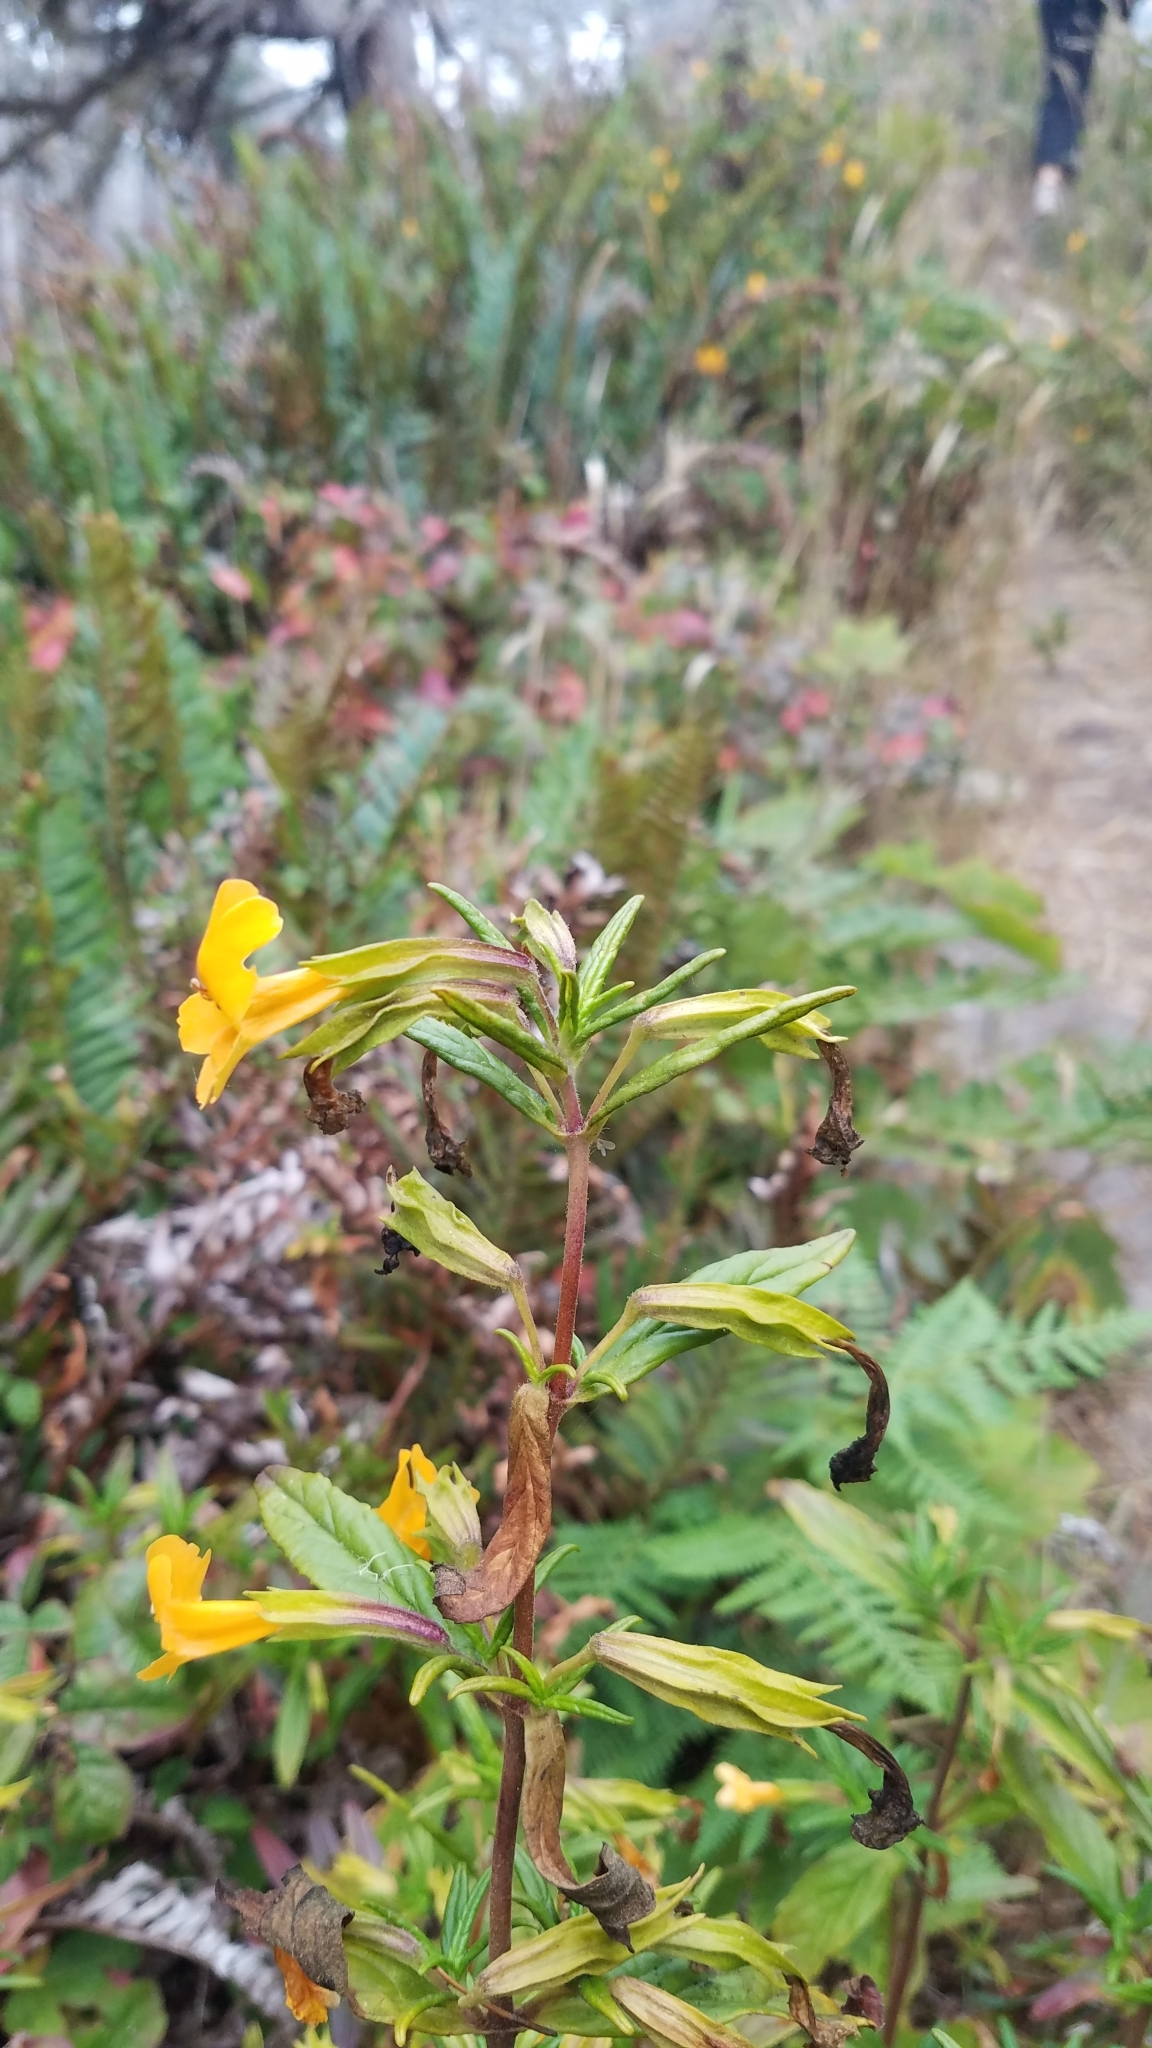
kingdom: Plantae
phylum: Tracheophyta
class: Magnoliopsida
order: Lamiales
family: Phrymaceae
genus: Diplacus
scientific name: Diplacus aurantiacus
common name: Bush monkey-flower
